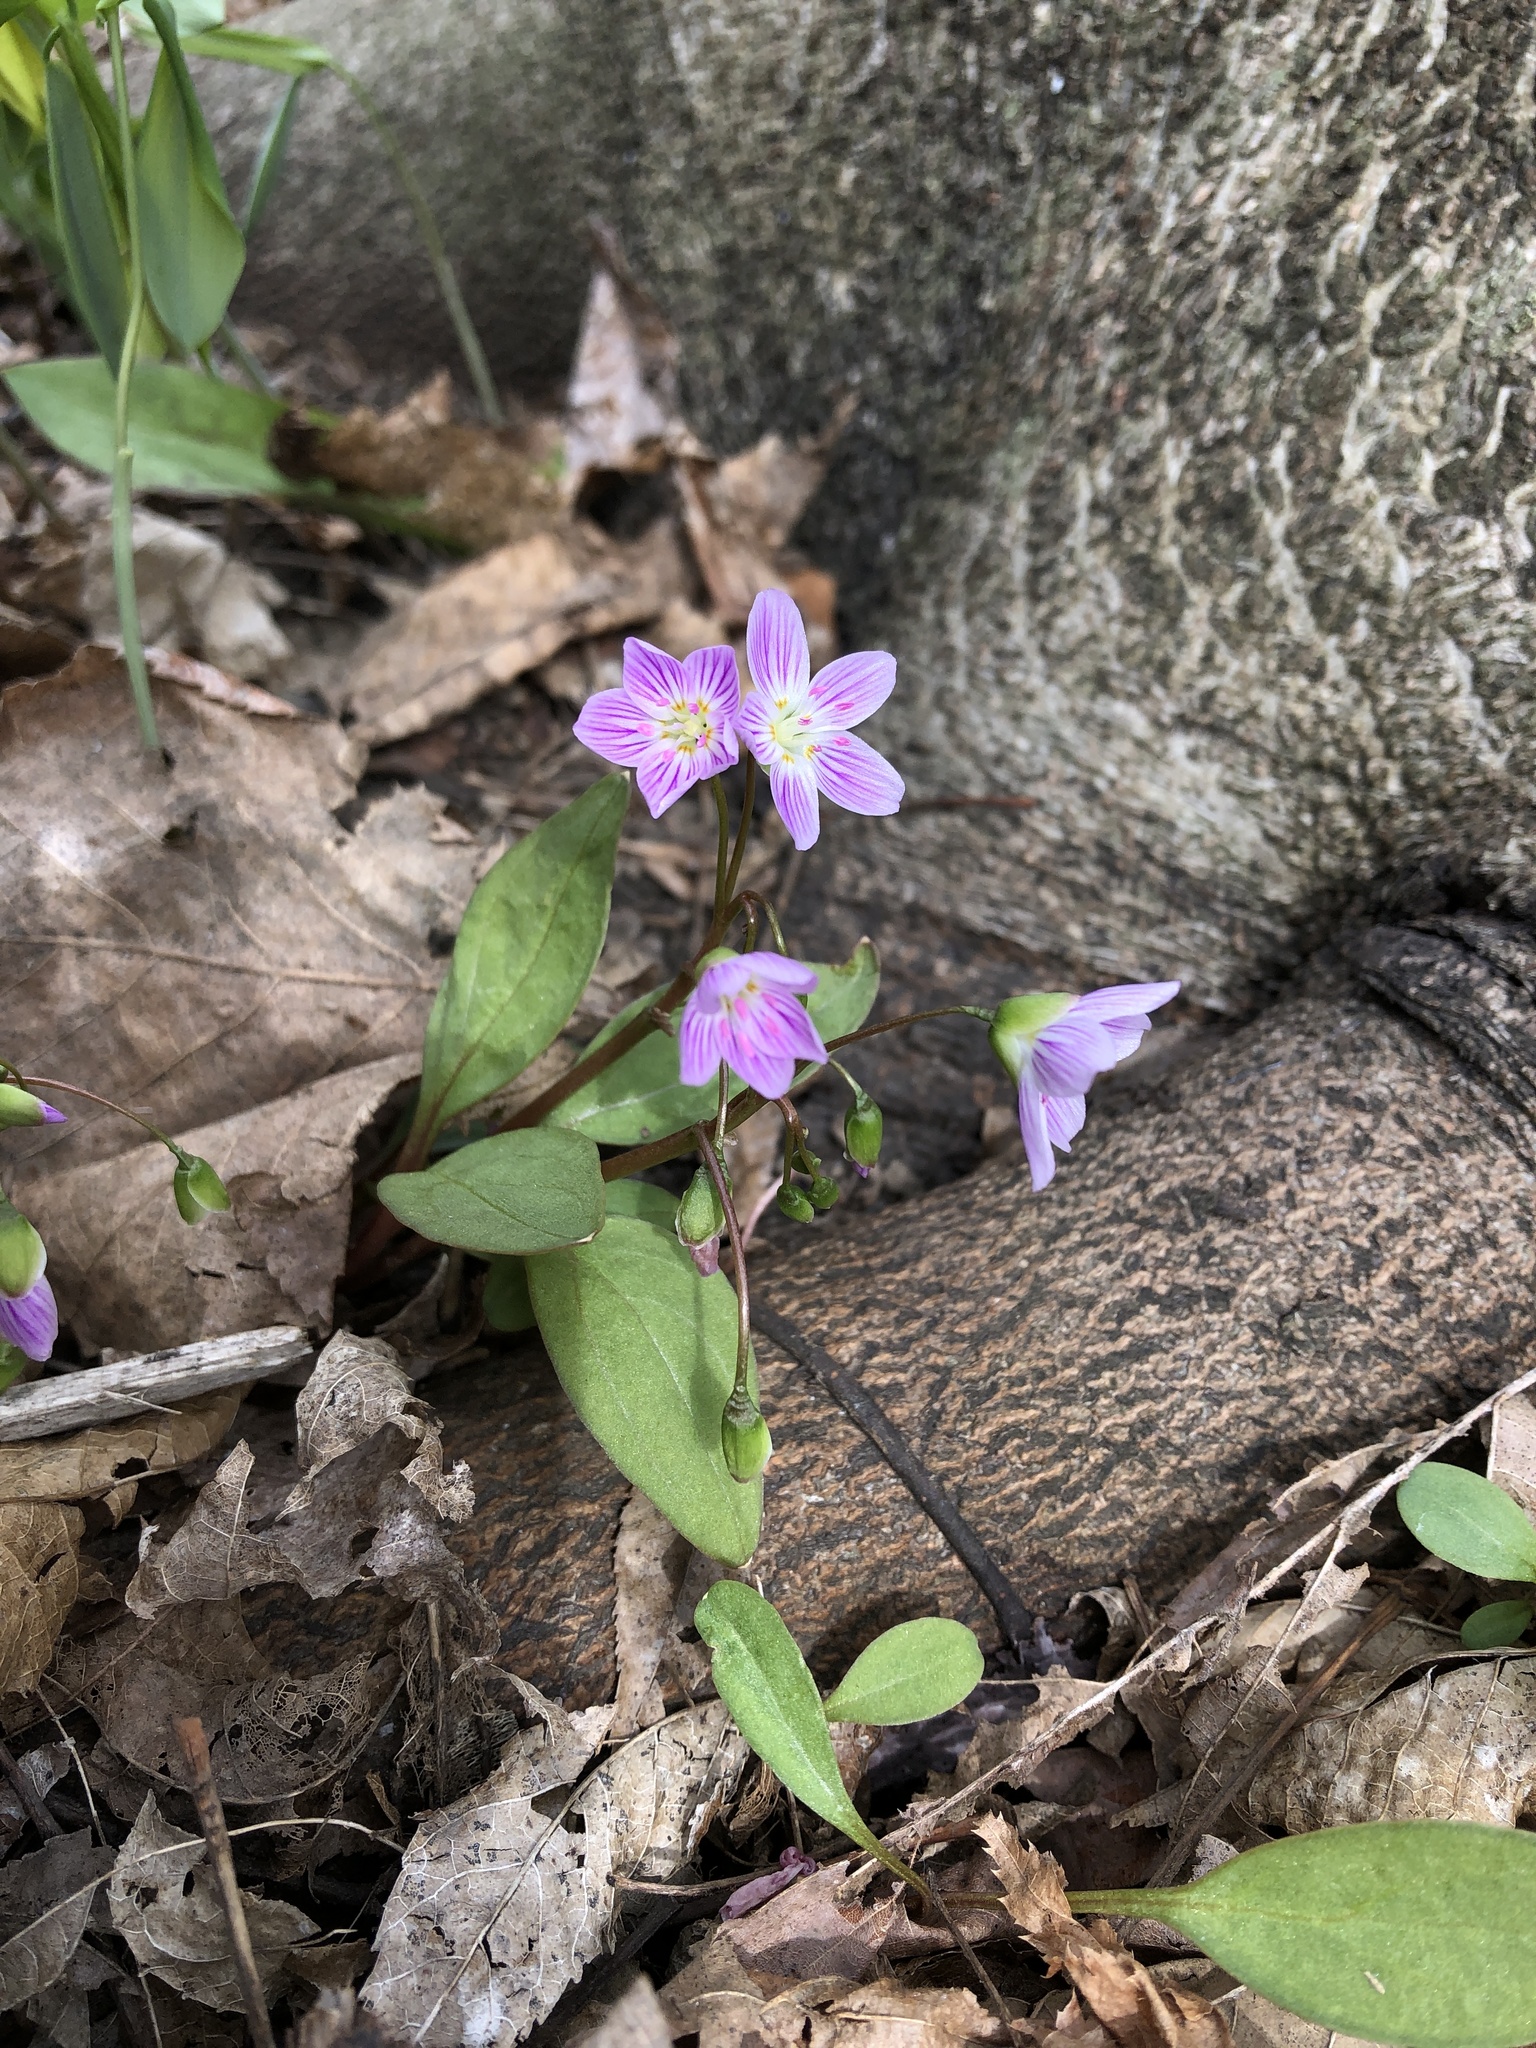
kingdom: Plantae
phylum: Tracheophyta
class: Magnoliopsida
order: Caryophyllales
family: Montiaceae
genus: Claytonia
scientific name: Claytonia caroliniana
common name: Carolina spring beauty
